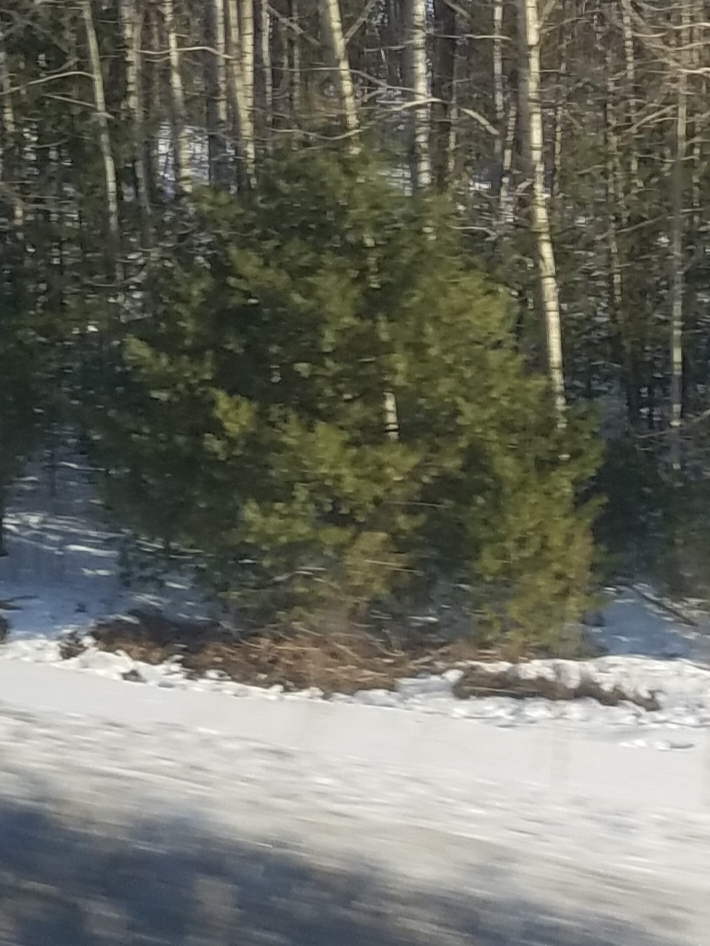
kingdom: Plantae
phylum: Tracheophyta
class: Pinopsida
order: Pinales
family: Pinaceae
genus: Pinus
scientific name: Pinus strobus
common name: Weymouth pine
